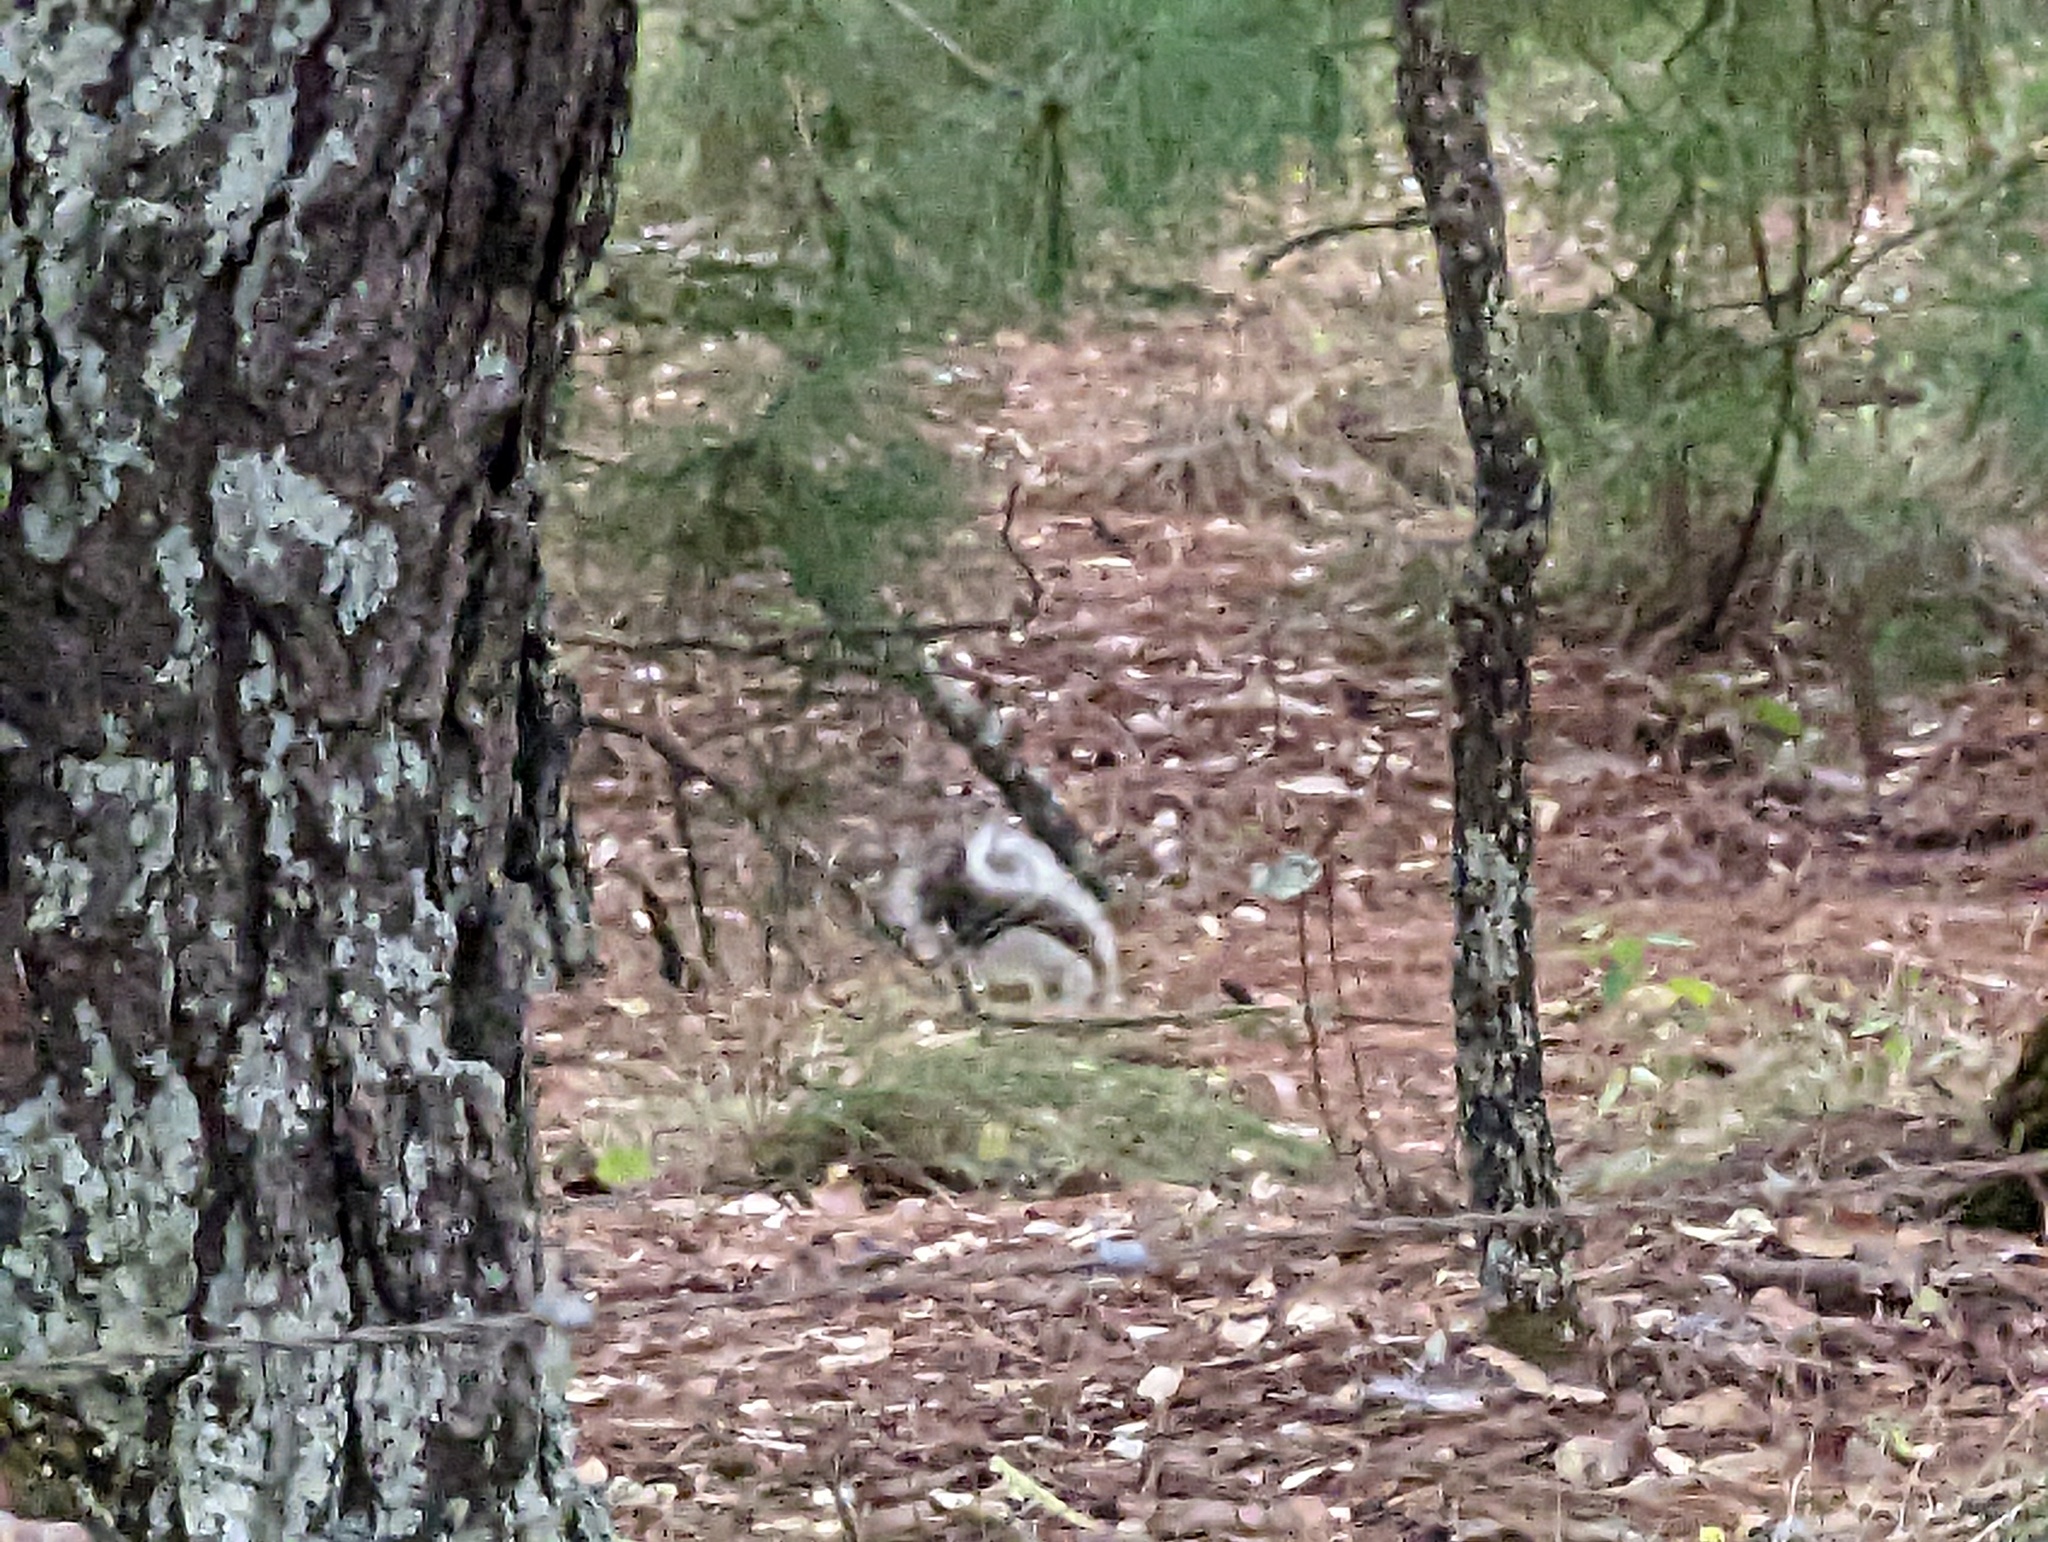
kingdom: Animalia
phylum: Chordata
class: Mammalia
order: Rodentia
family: Sciuridae
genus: Sciurus
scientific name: Sciurus nayaritensis
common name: Mexican fox squirrel
